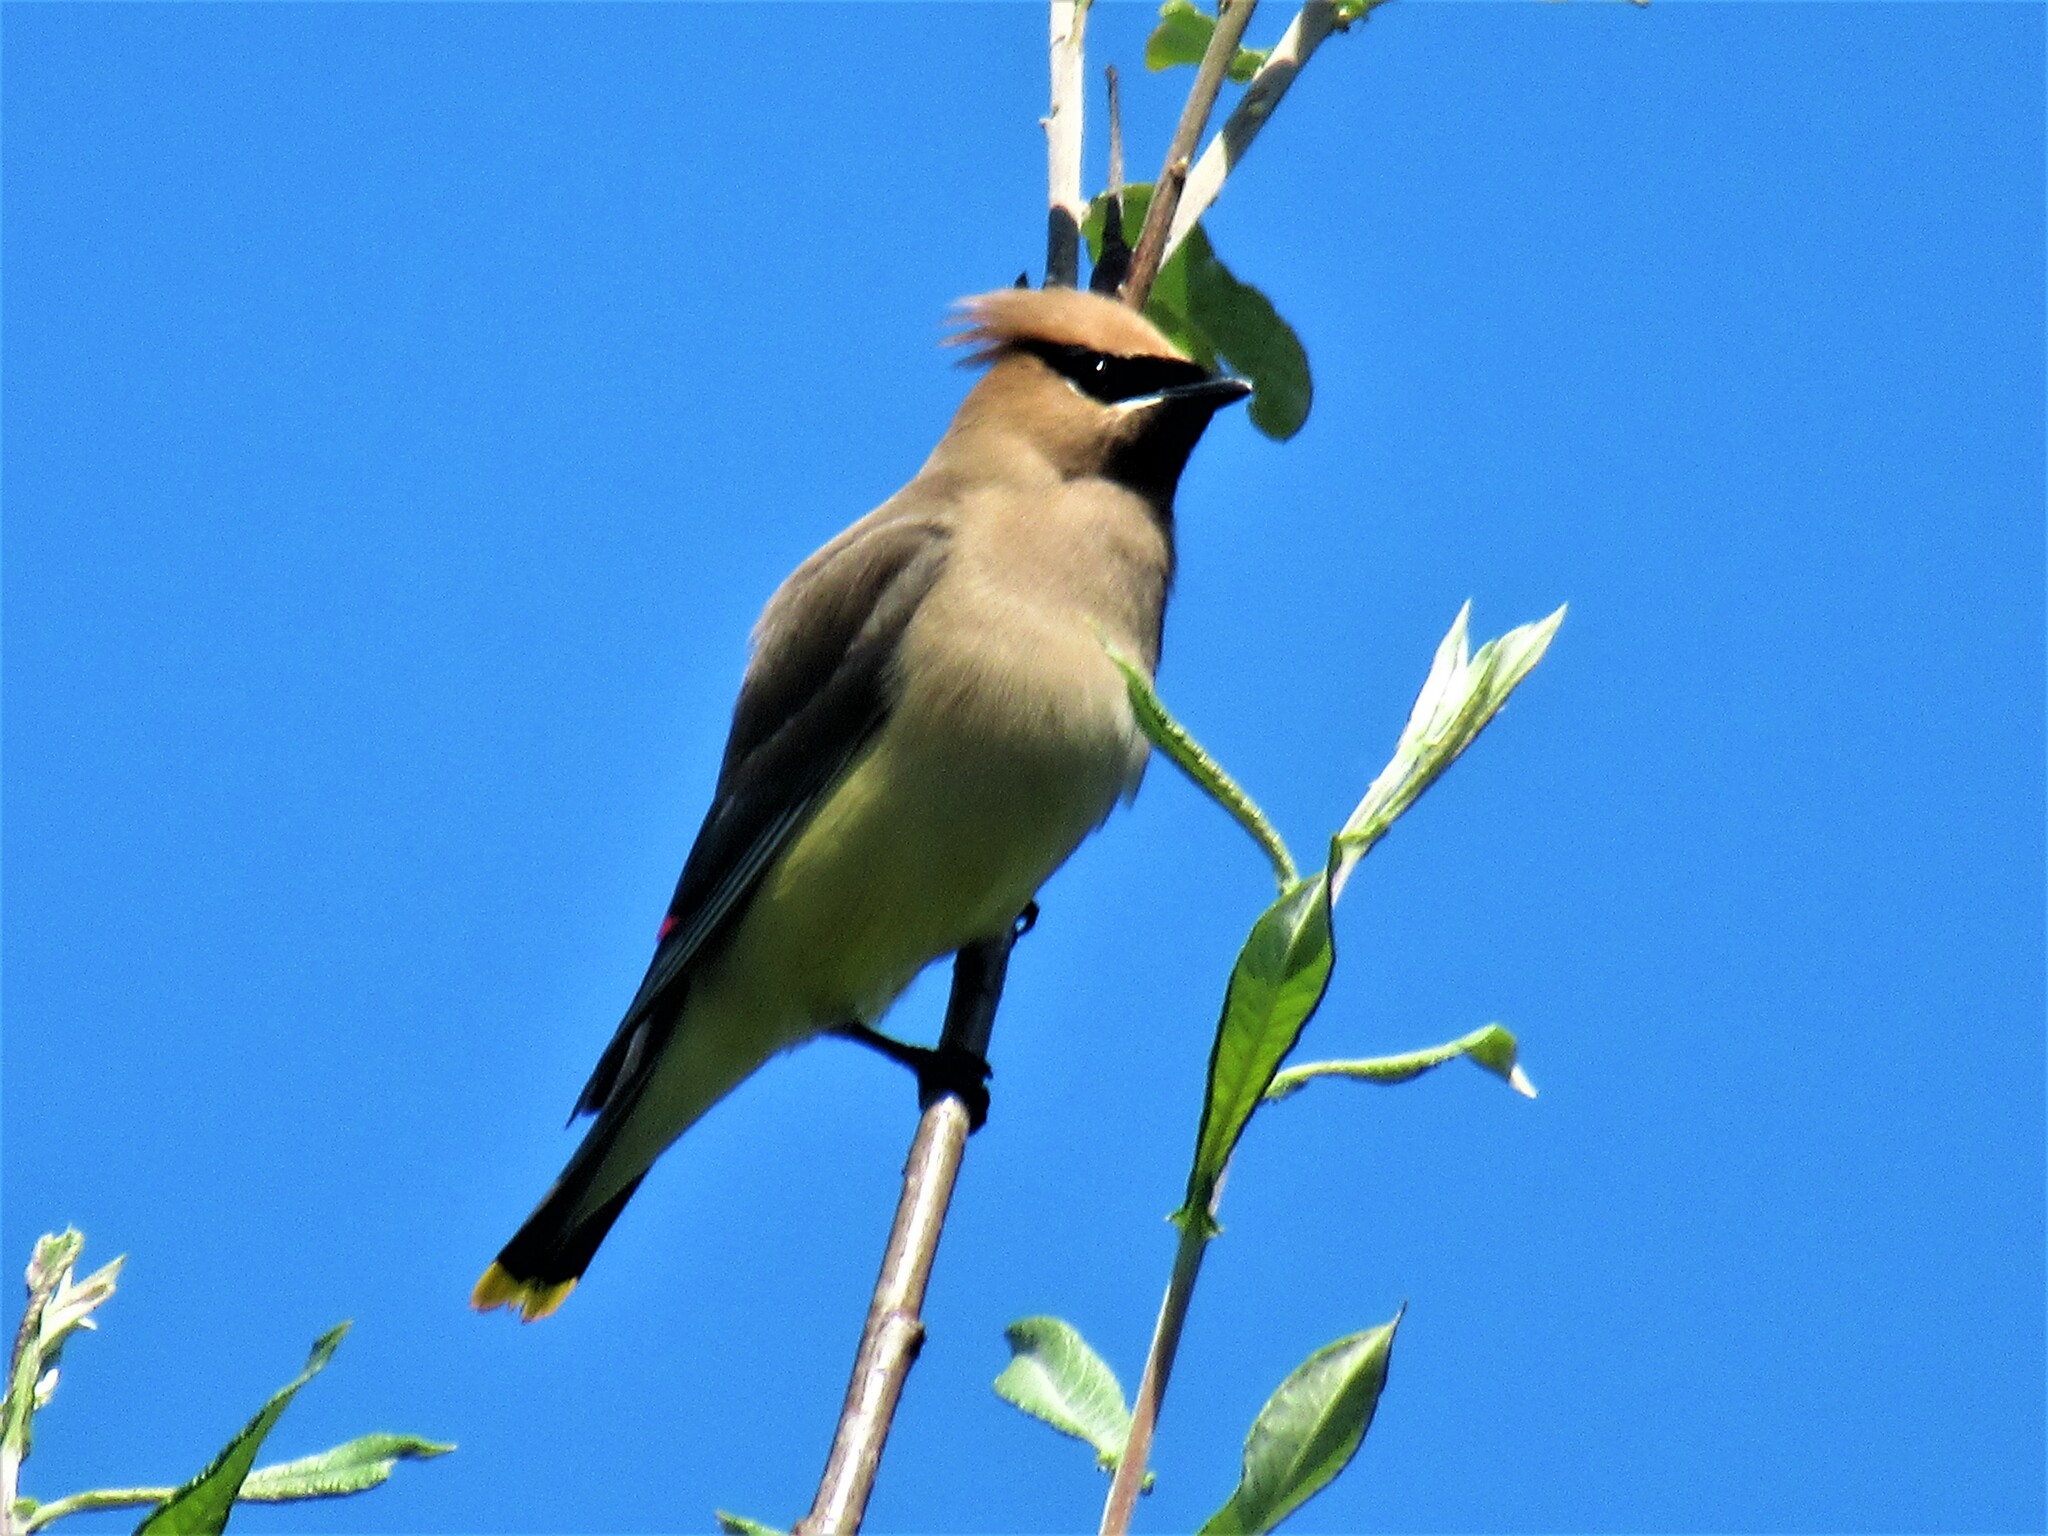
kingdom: Animalia
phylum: Chordata
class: Aves
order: Passeriformes
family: Bombycillidae
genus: Bombycilla
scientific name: Bombycilla cedrorum
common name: Cedar waxwing
